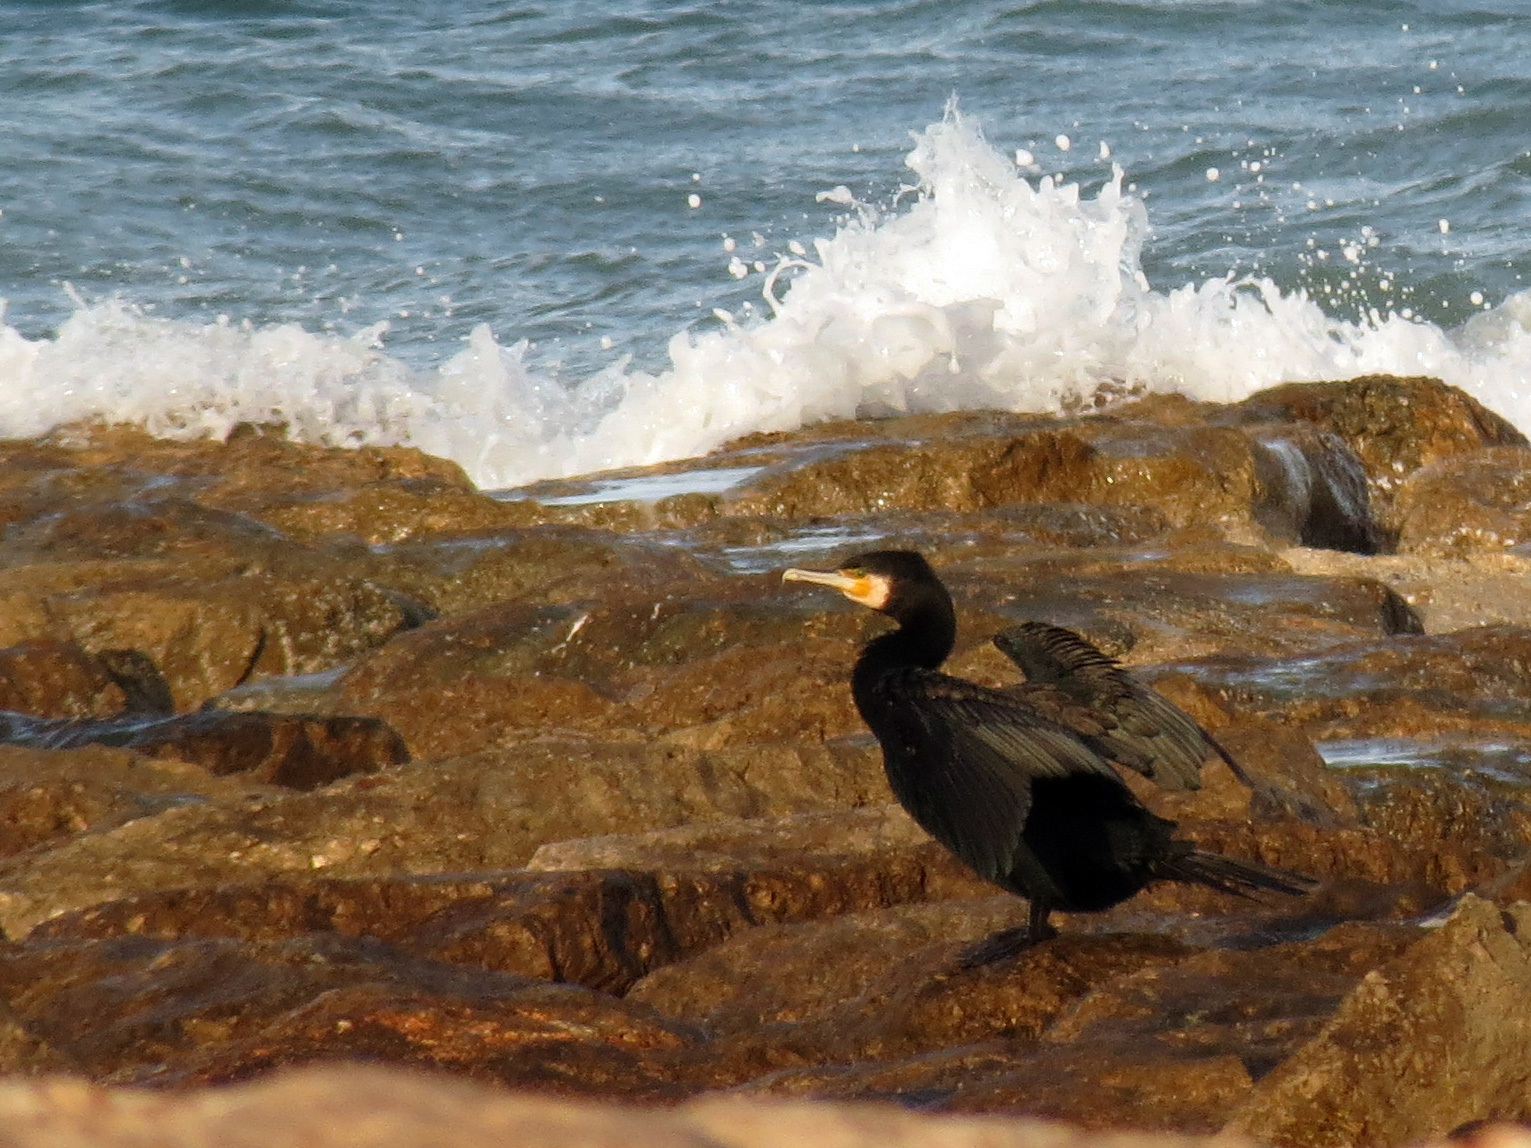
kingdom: Animalia
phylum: Chordata
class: Aves
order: Suliformes
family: Phalacrocoracidae
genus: Phalacrocorax
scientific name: Phalacrocorax carbo
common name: Great cormorant
